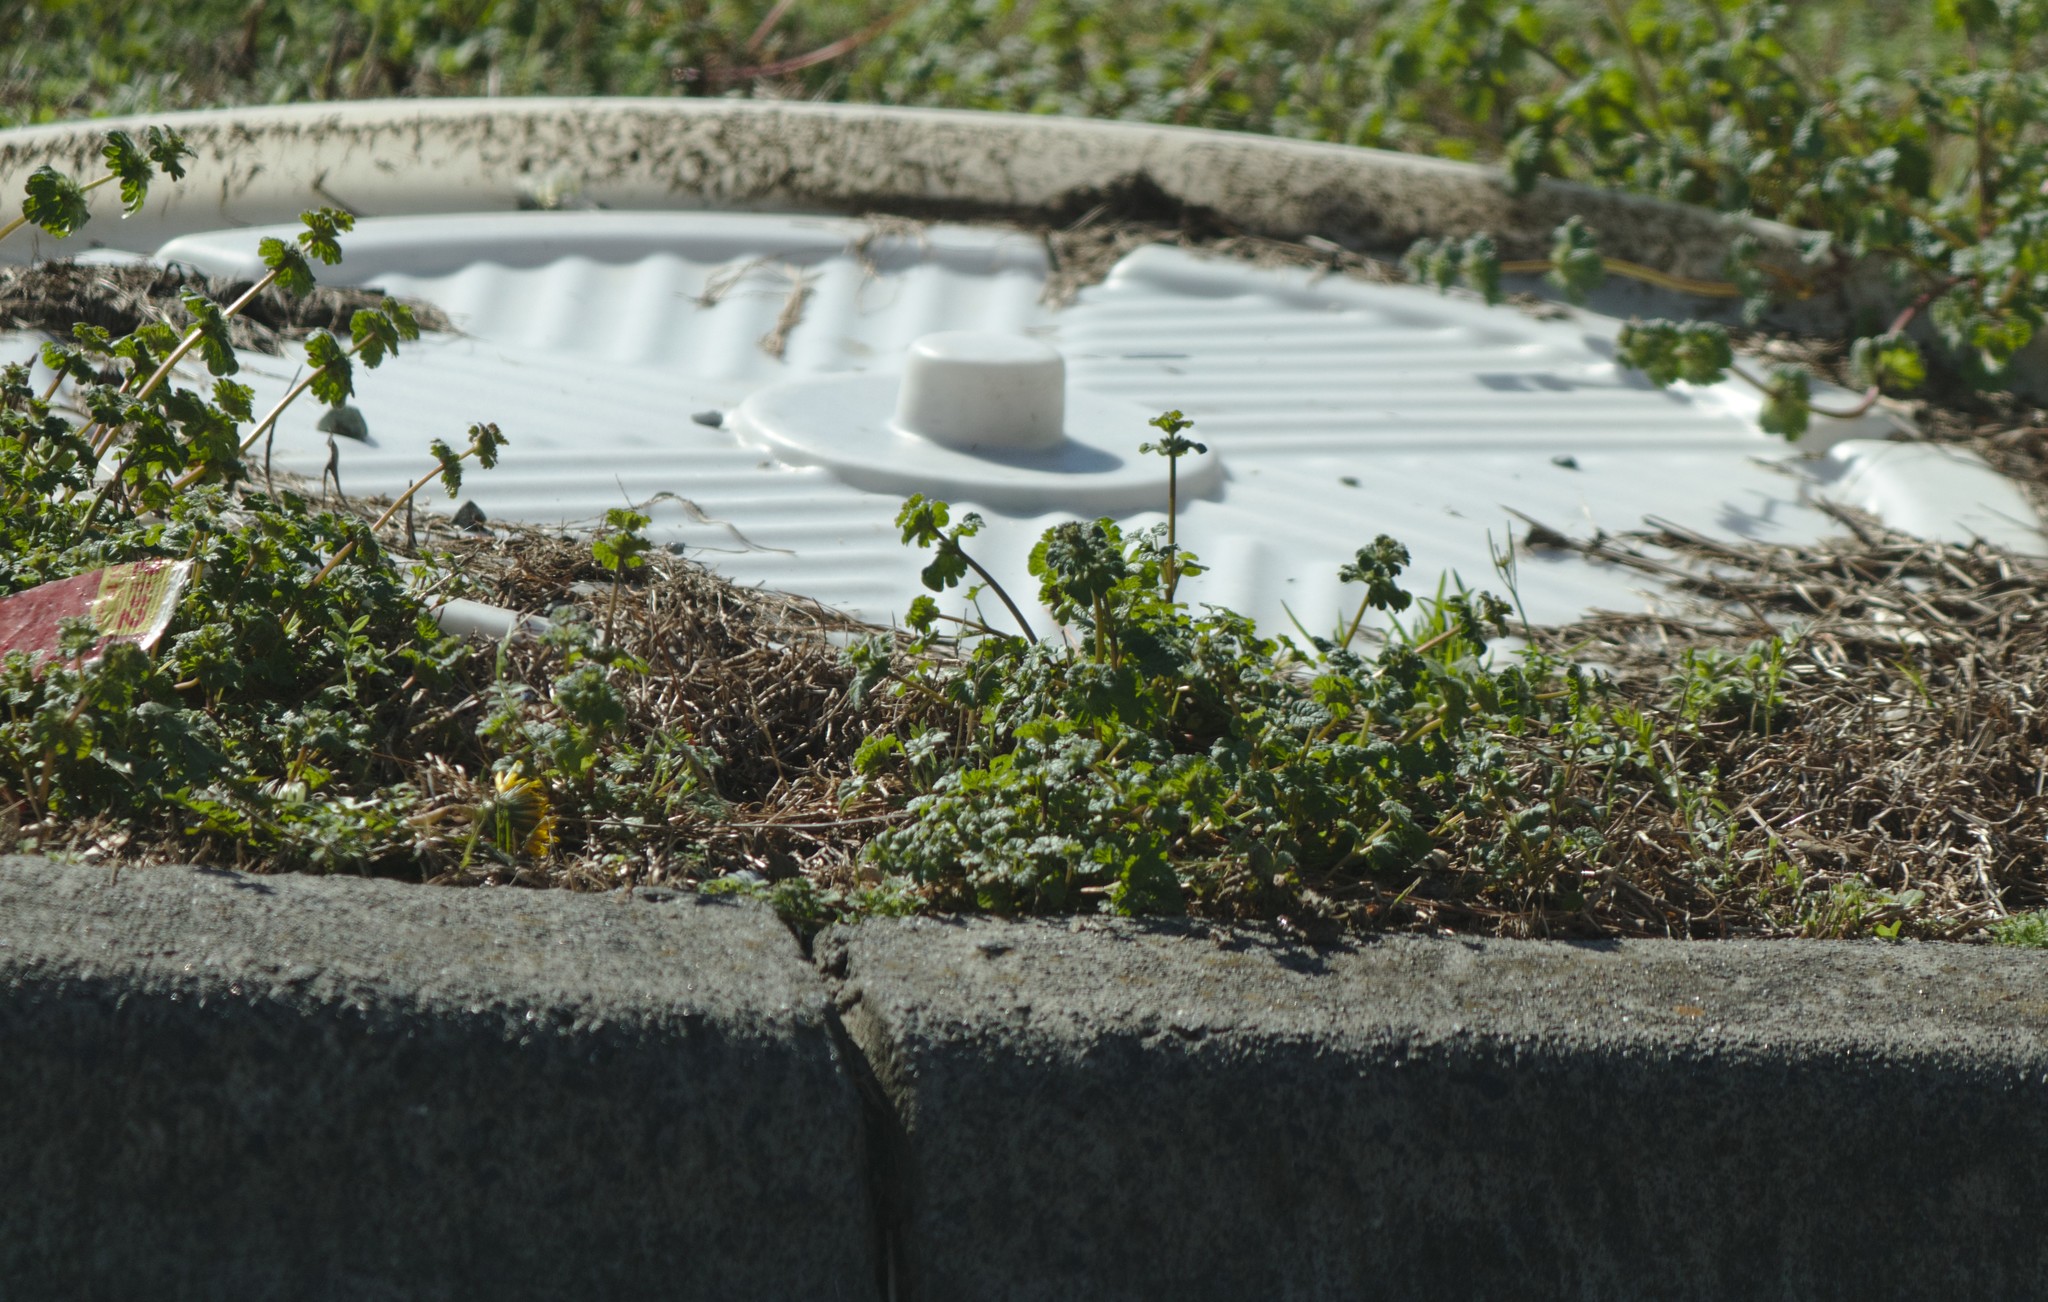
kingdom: Plantae
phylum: Tracheophyta
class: Magnoliopsida
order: Lamiales
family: Lamiaceae
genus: Lamium
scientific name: Lamium amplexicaule
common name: Henbit dead-nettle
